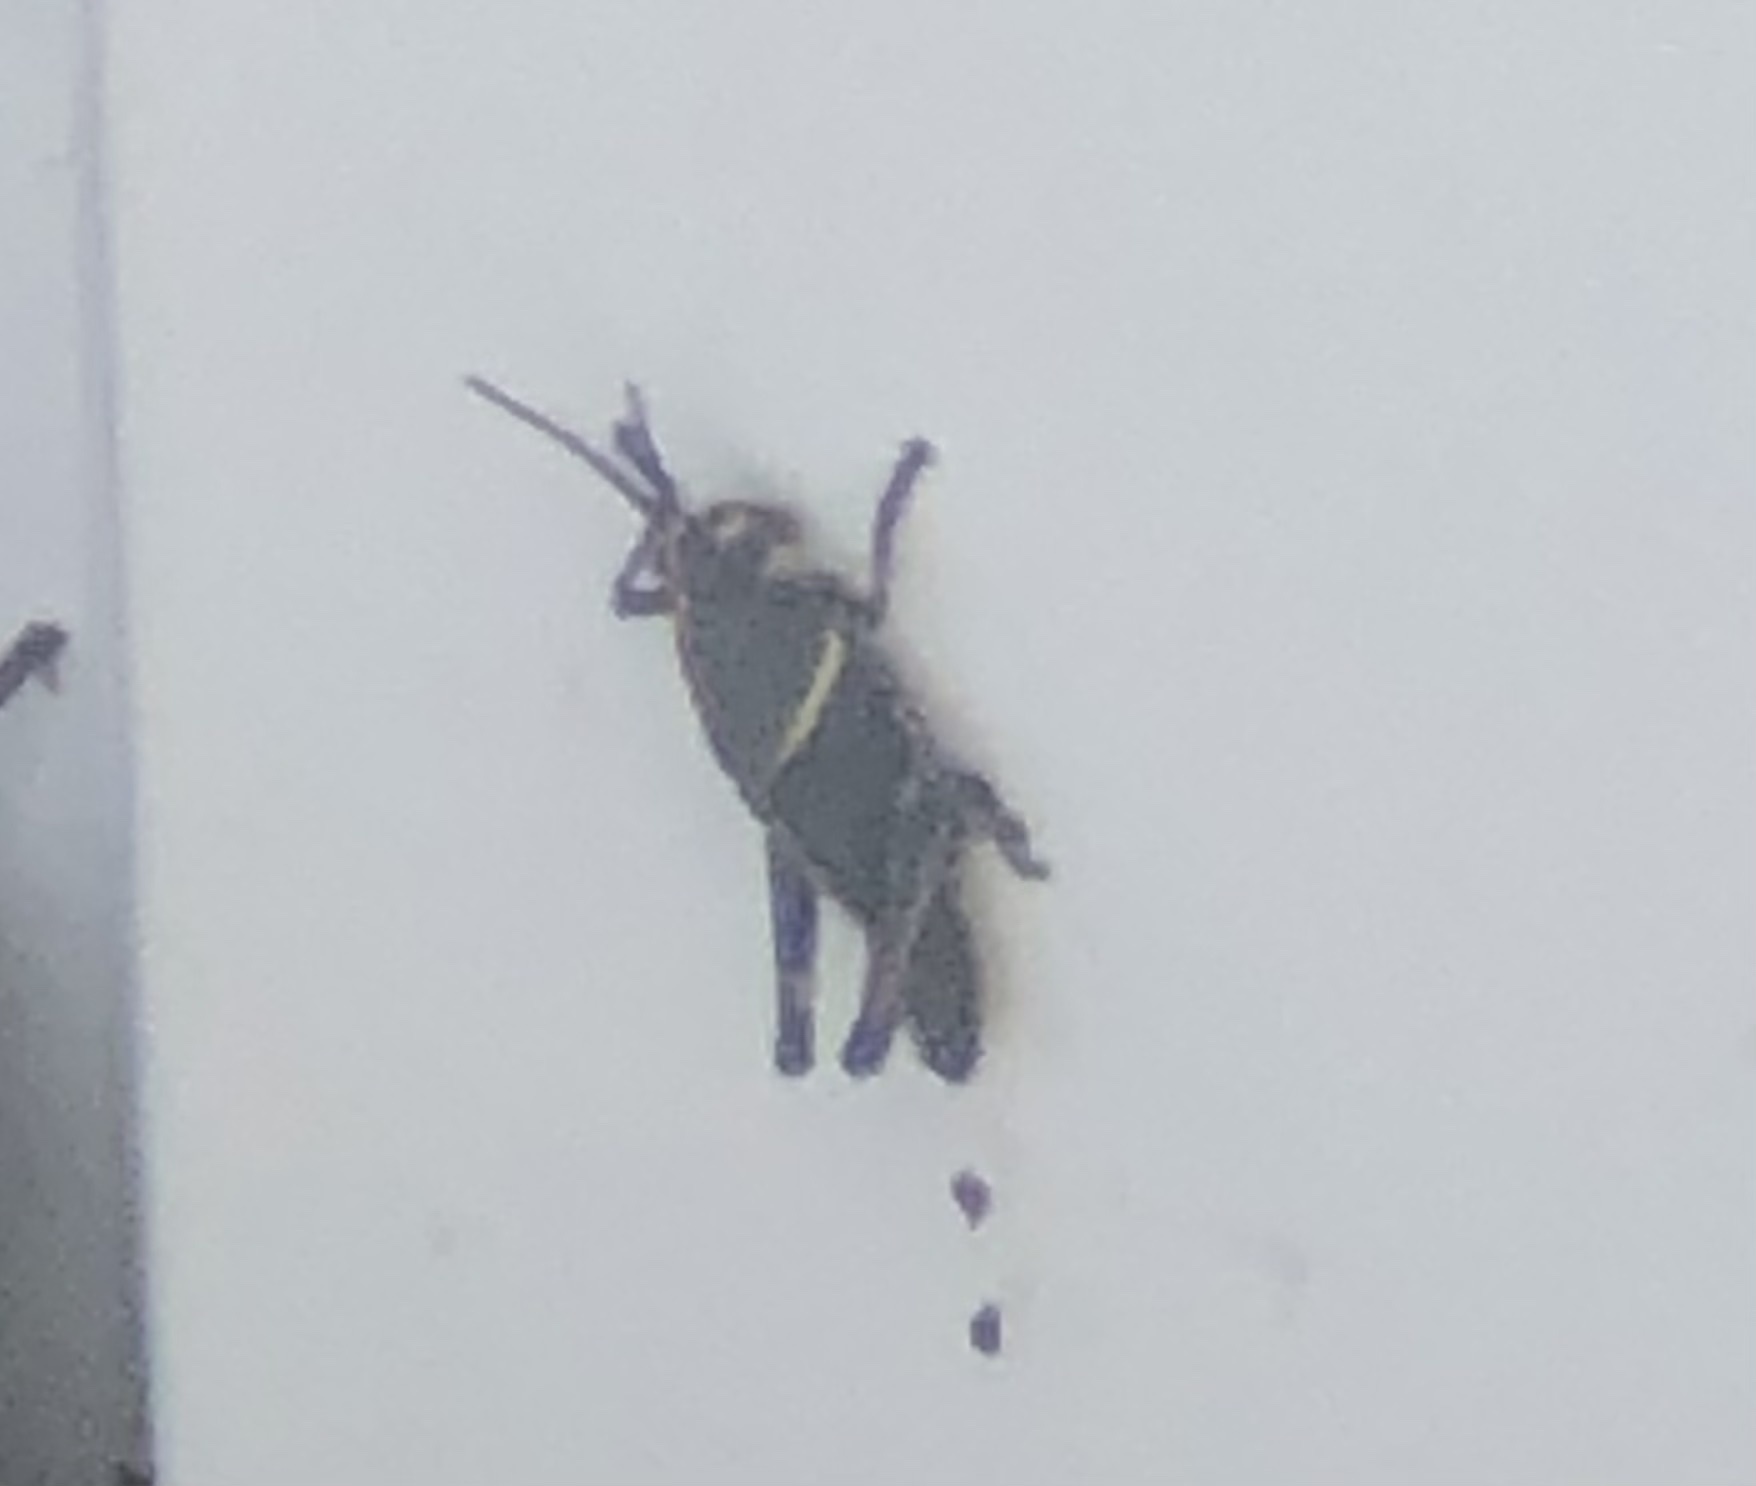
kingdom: Animalia
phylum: Arthropoda
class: Insecta
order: Orthoptera
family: Romaleidae
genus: Romalea
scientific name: Romalea microptera
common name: Eastern lubber grasshopper
